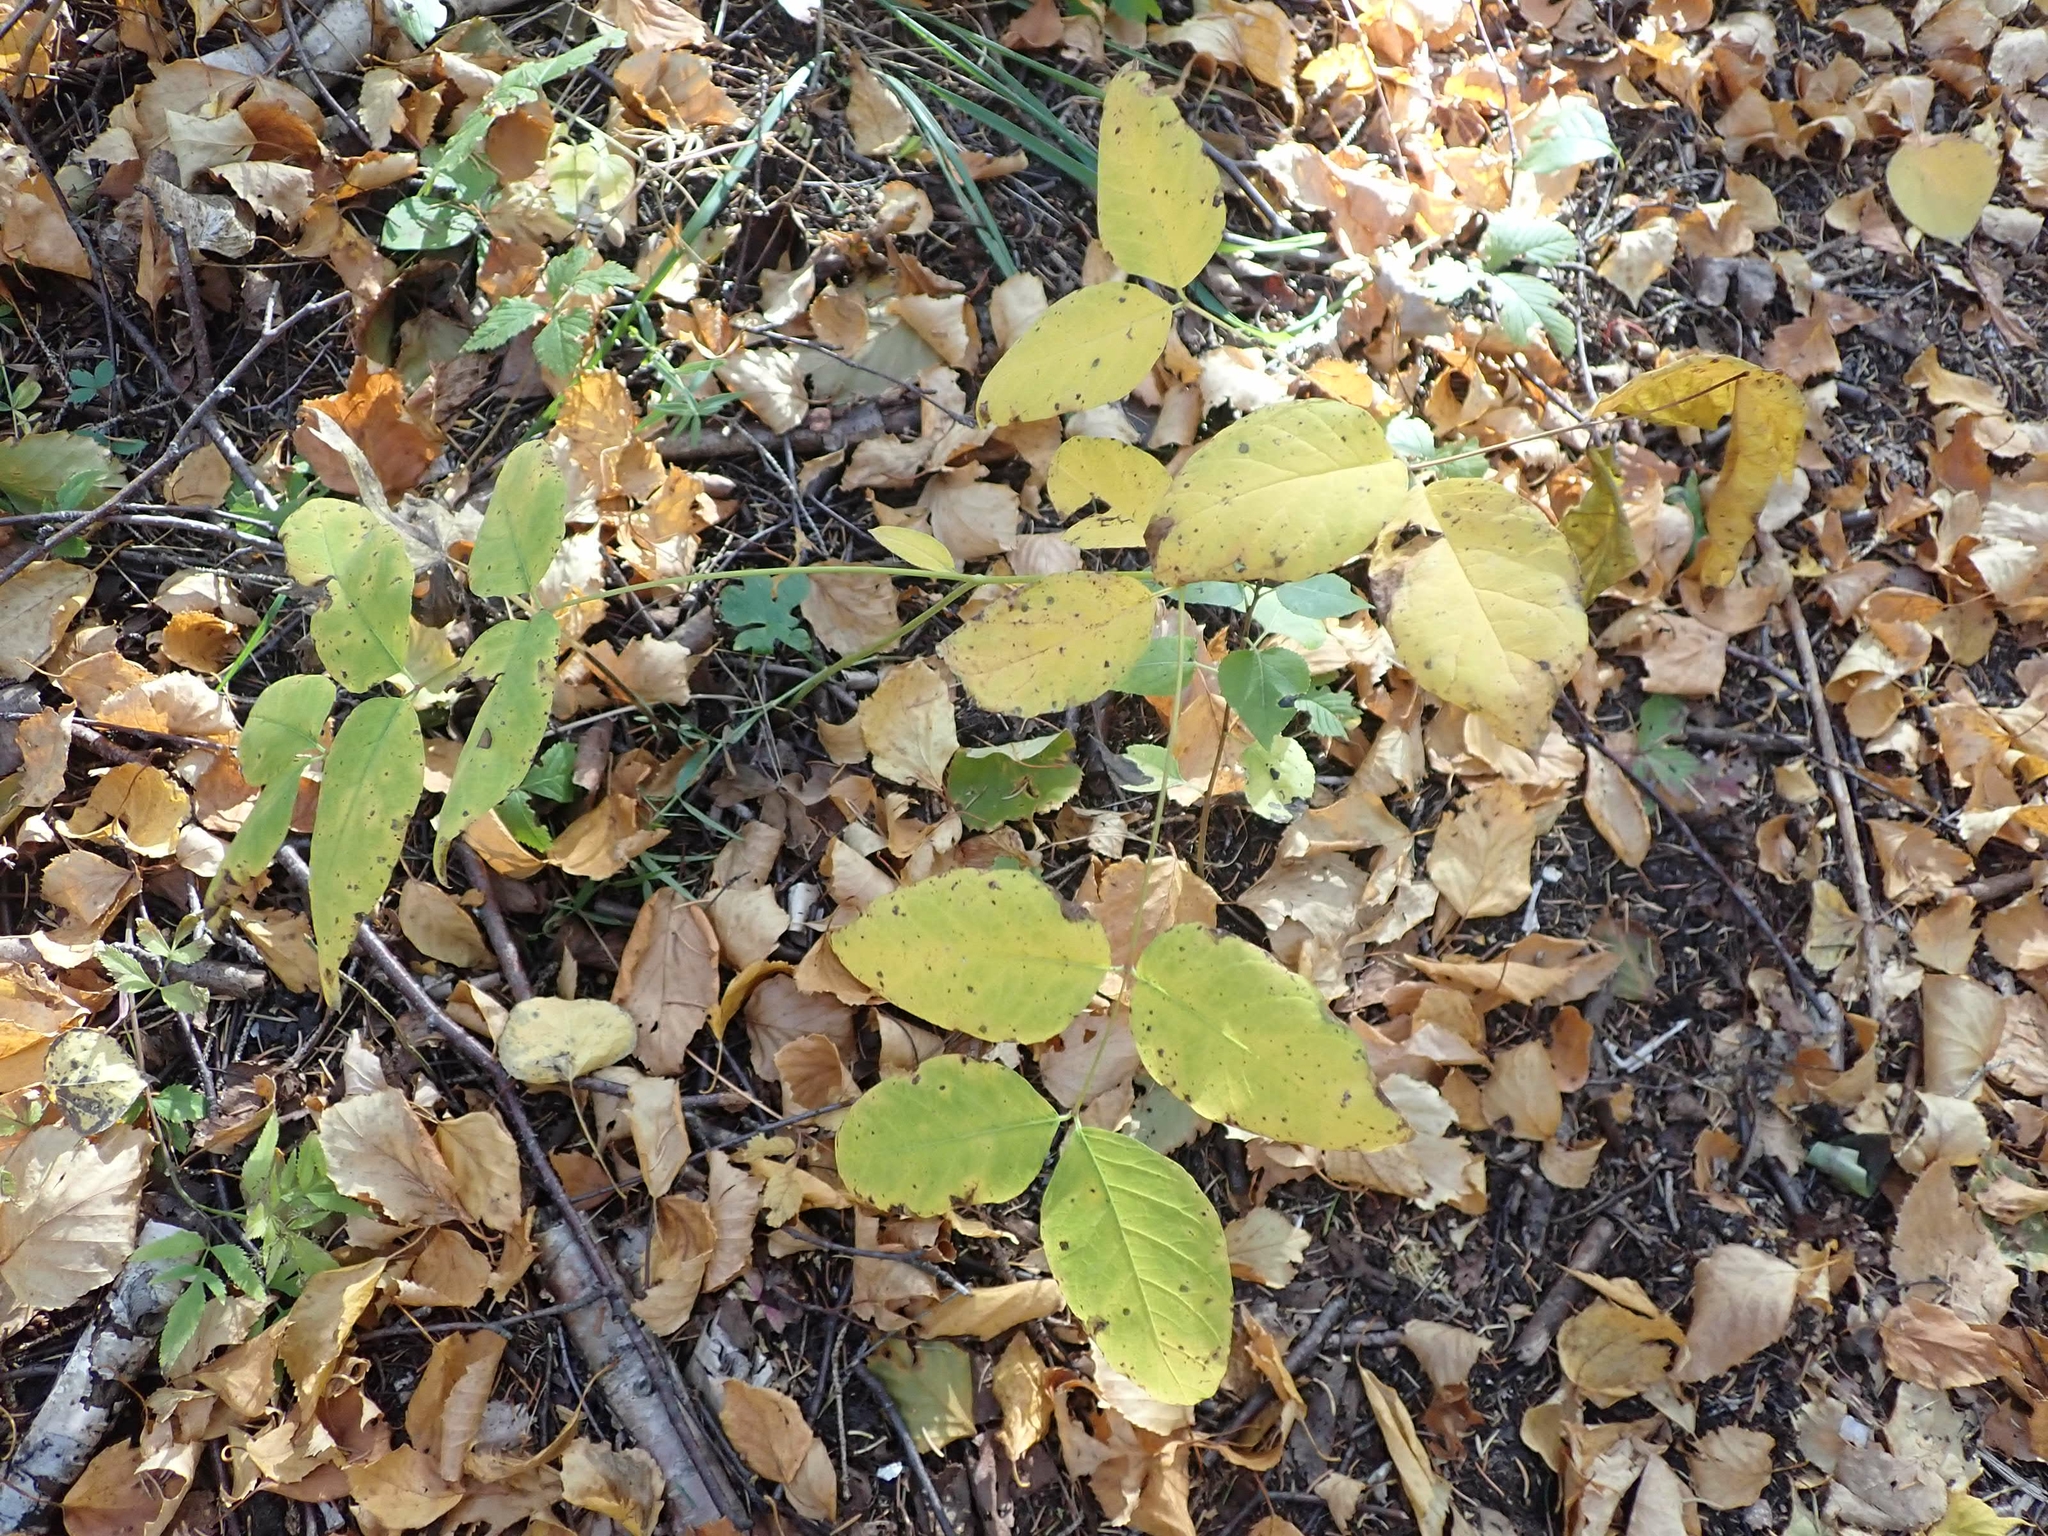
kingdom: Plantae
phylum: Tracheophyta
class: Magnoliopsida
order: Apiales
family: Araliaceae
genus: Aralia
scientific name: Aralia nudicaulis
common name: Wild sarsaparilla
